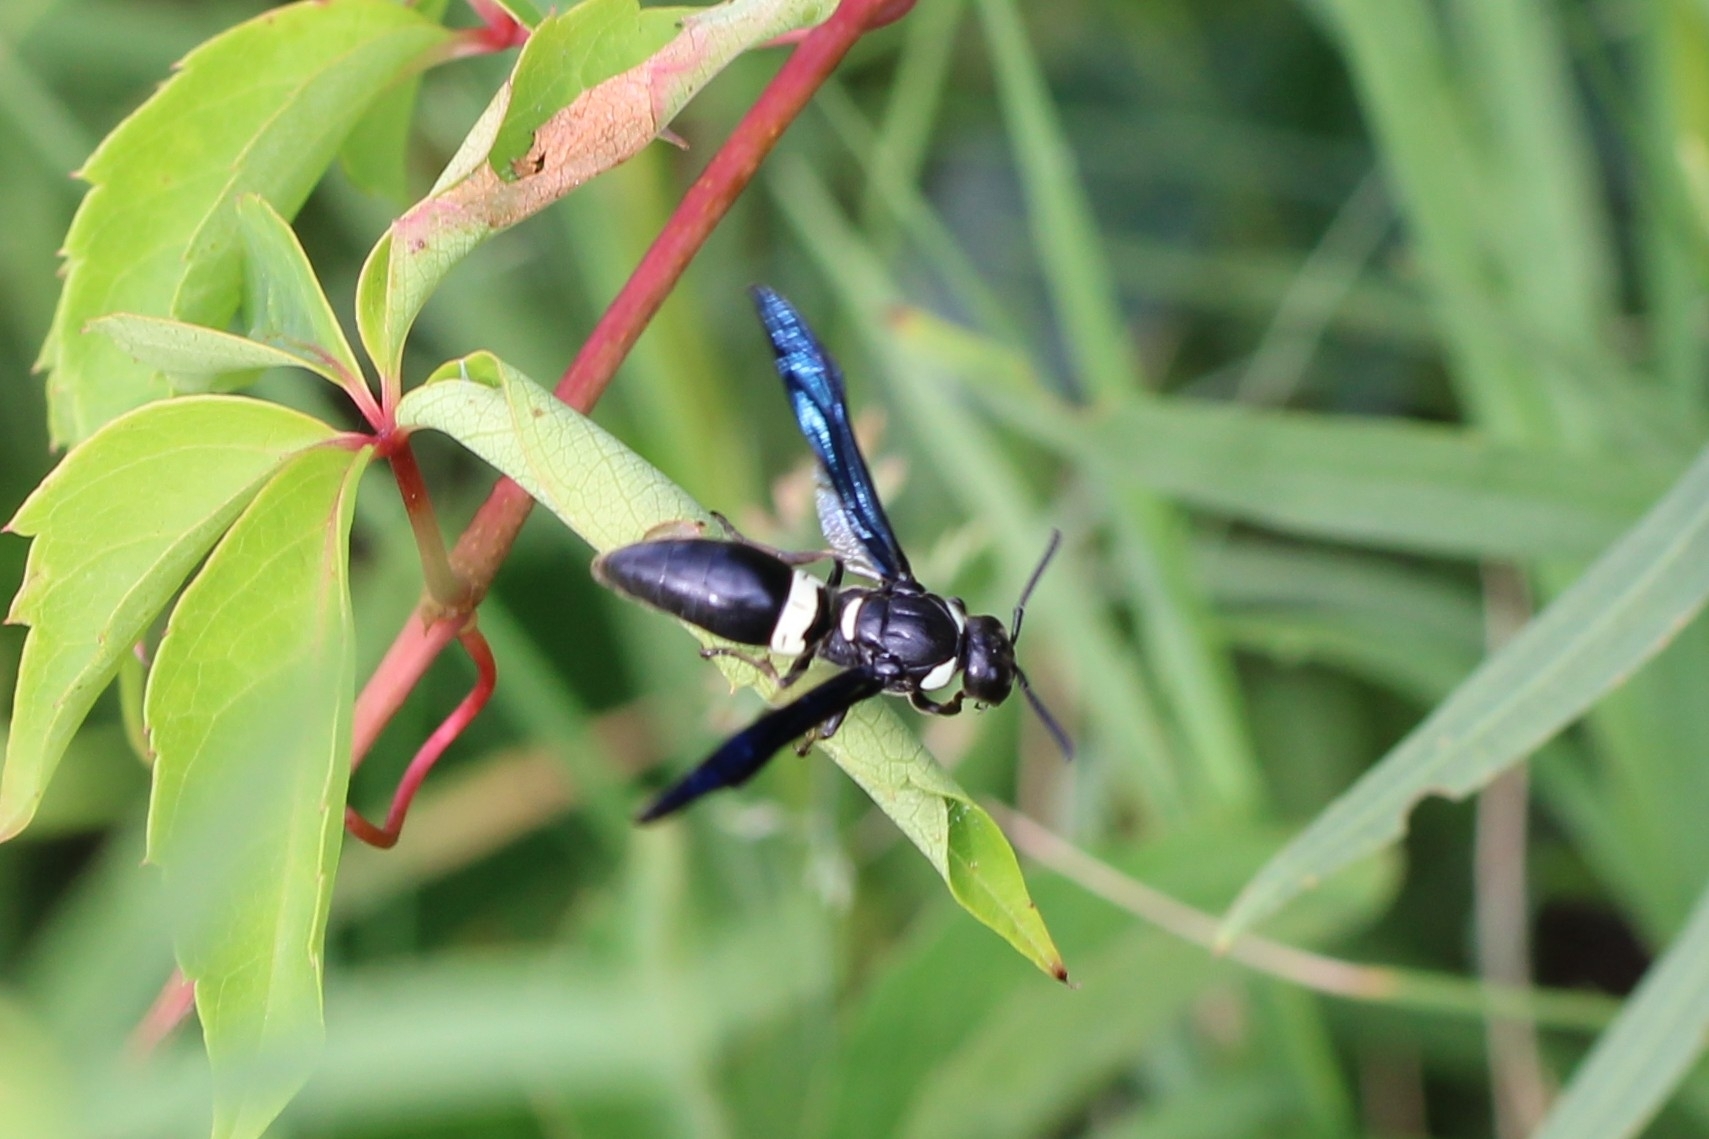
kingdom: Animalia
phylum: Arthropoda
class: Insecta
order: Hymenoptera
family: Eumenidae
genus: Monobia
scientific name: Monobia quadridens
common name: Four-toothed mason wasp
